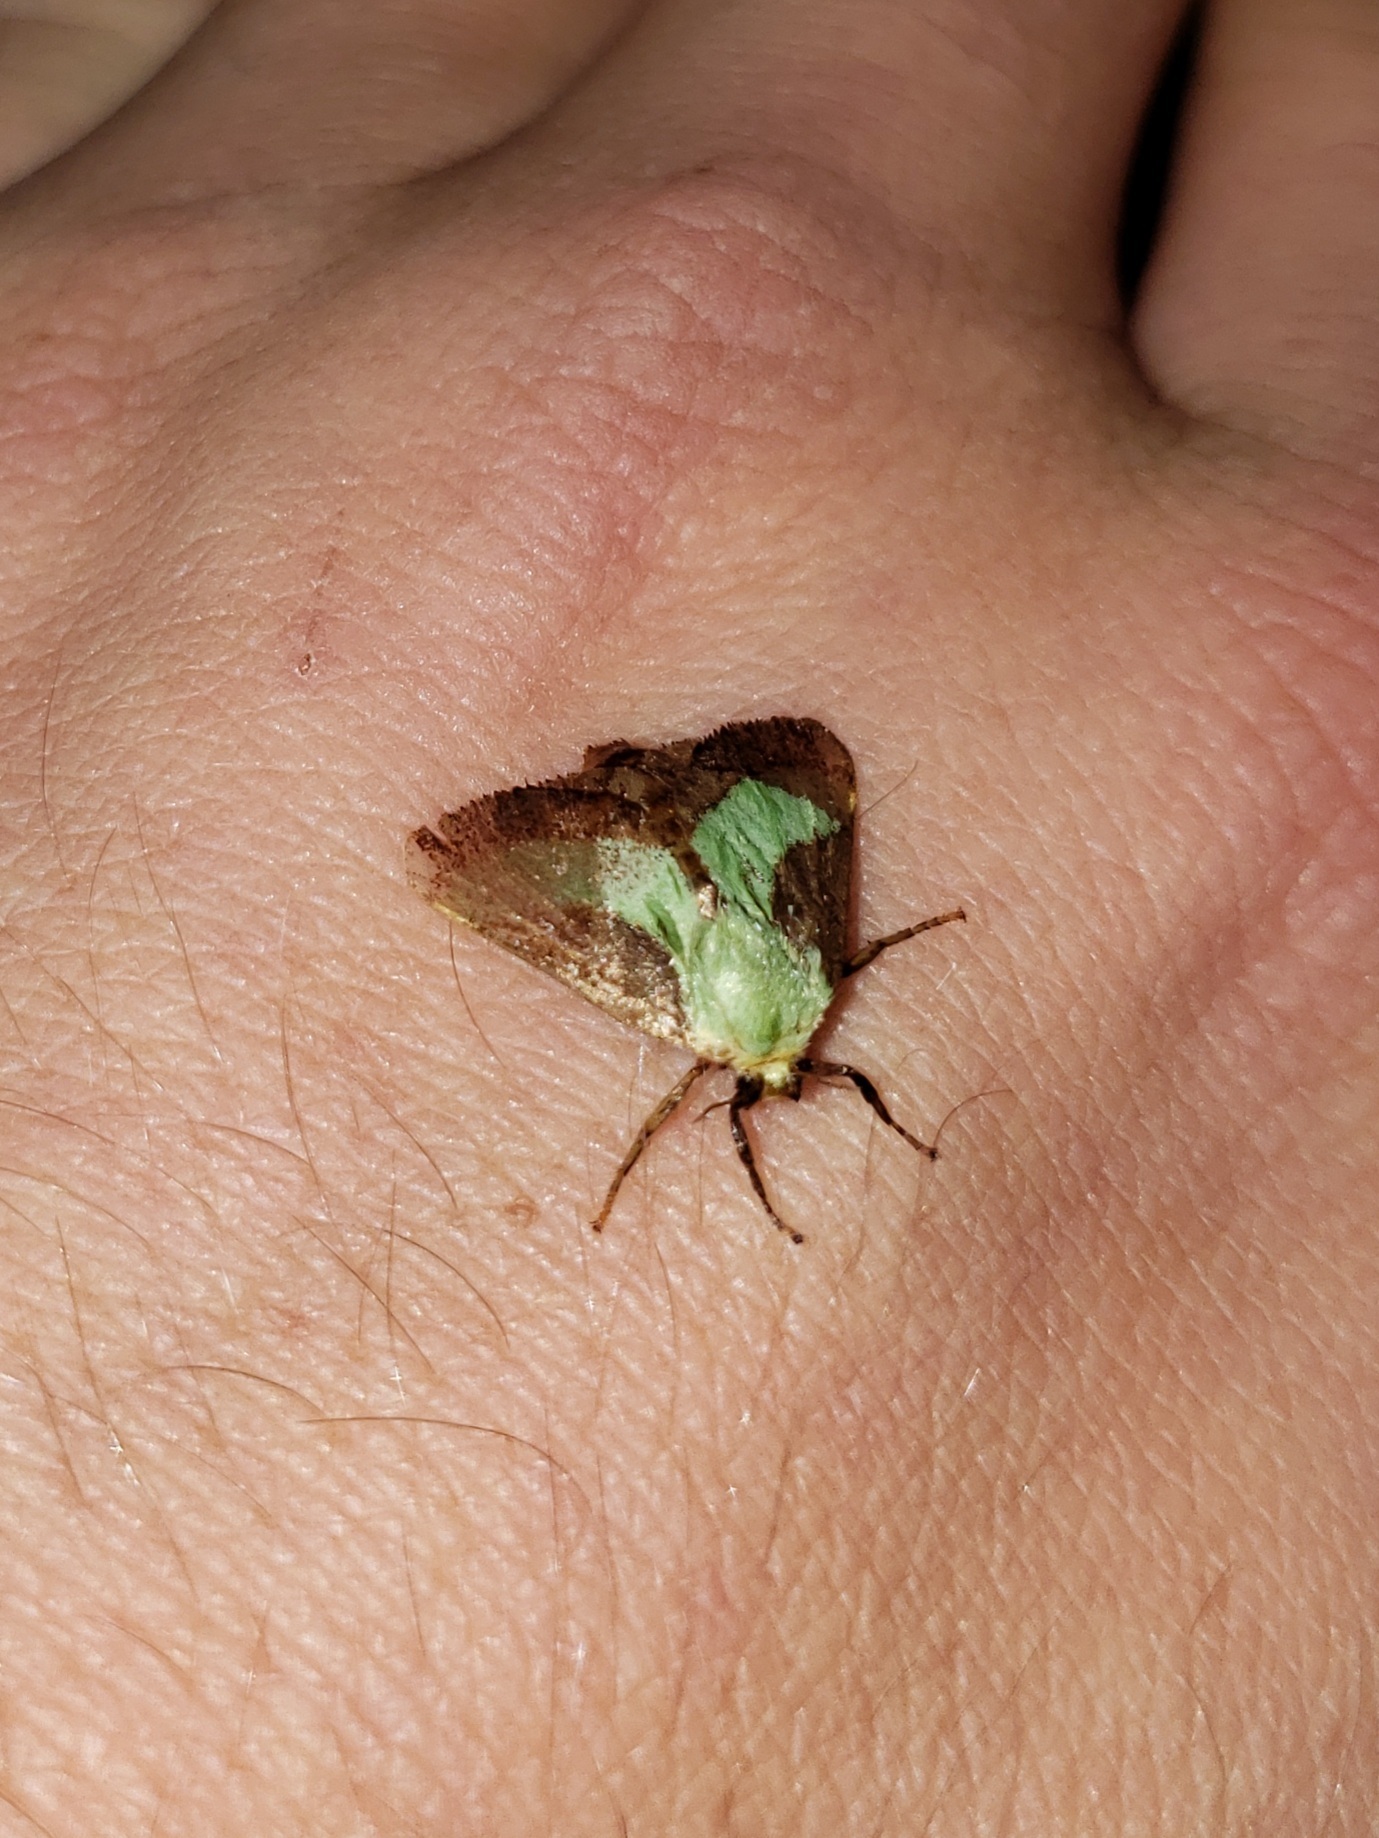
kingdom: Animalia
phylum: Arthropoda
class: Insecta
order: Lepidoptera
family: Limacodidae
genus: Parasa
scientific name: Parasa mionexia
